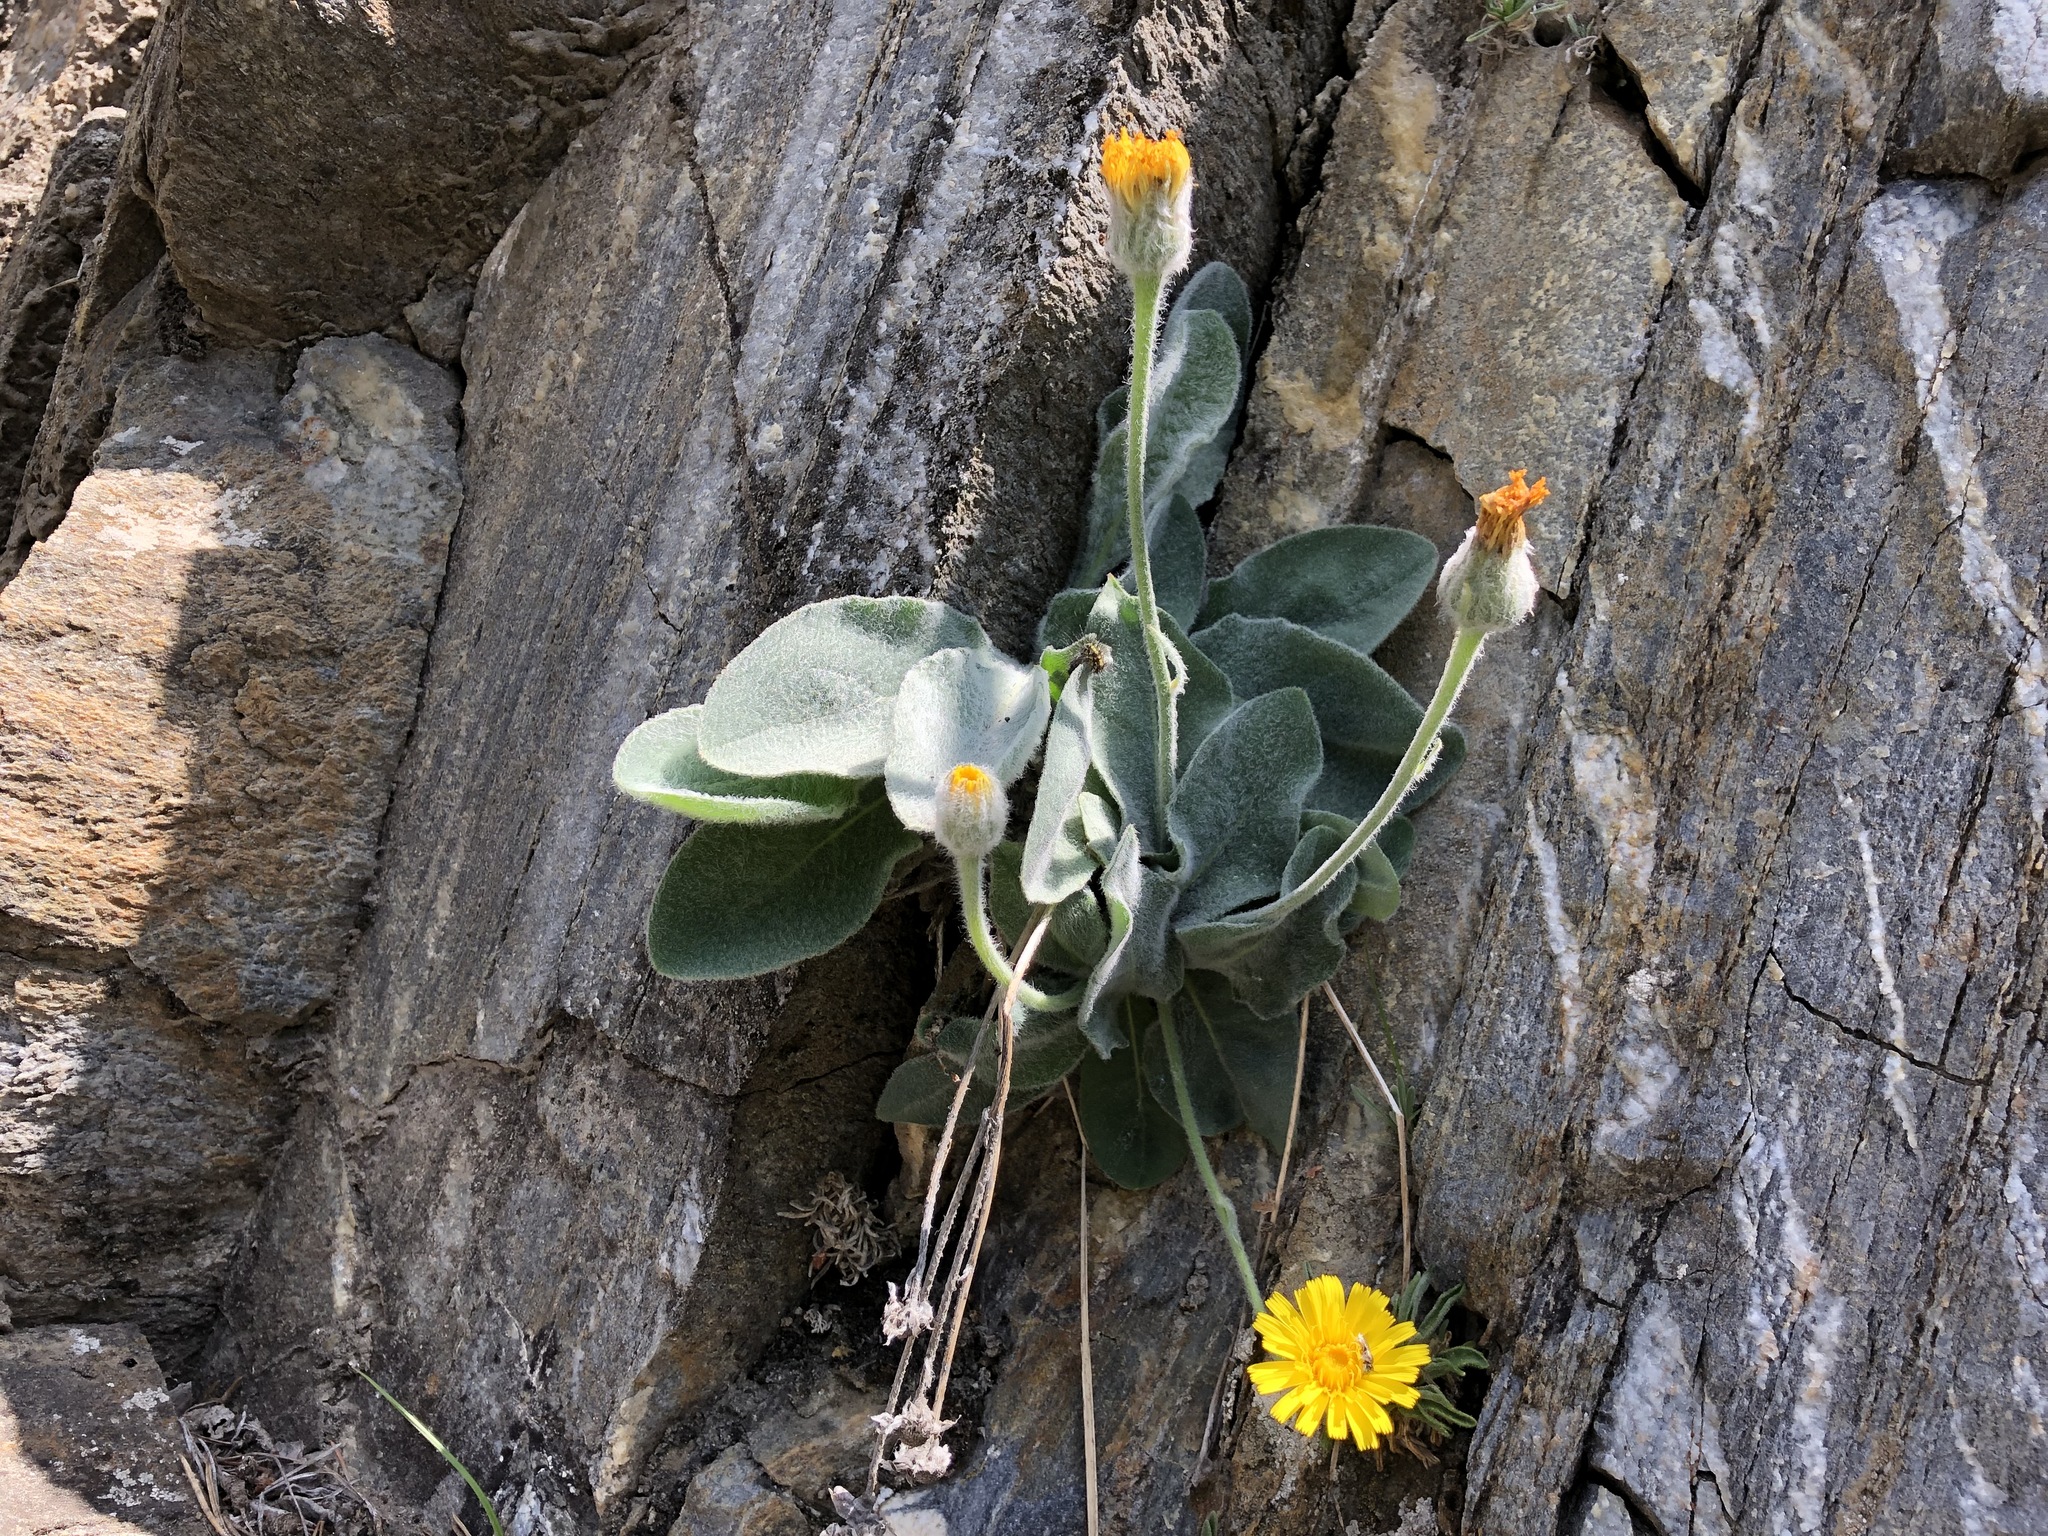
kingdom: Plantae
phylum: Tracheophyta
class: Magnoliopsida
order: Asterales
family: Asteraceae
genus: Hieracium
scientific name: Hieracium villosum
